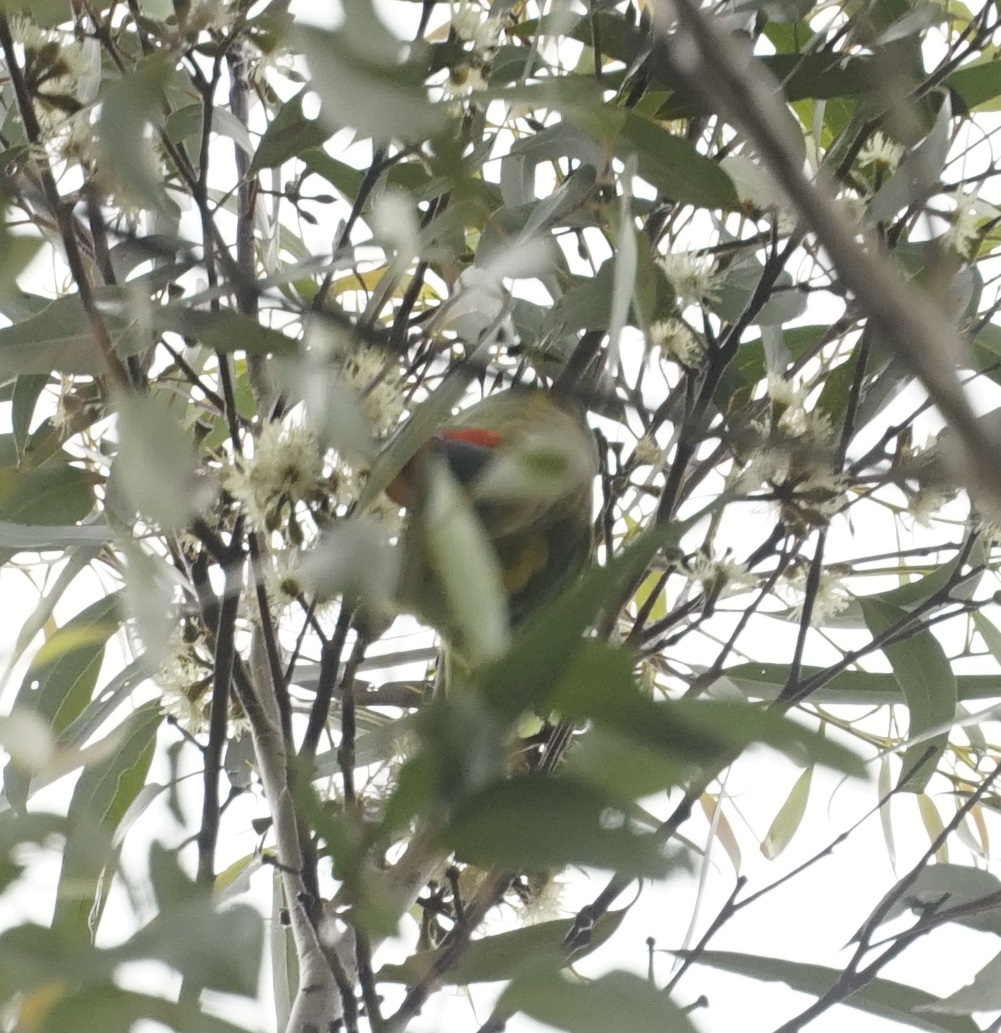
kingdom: Animalia
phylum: Chordata
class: Aves
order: Psittaciformes
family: Psittacidae
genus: Glossopsitta
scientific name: Glossopsitta concinna
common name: Musk lorikeet
